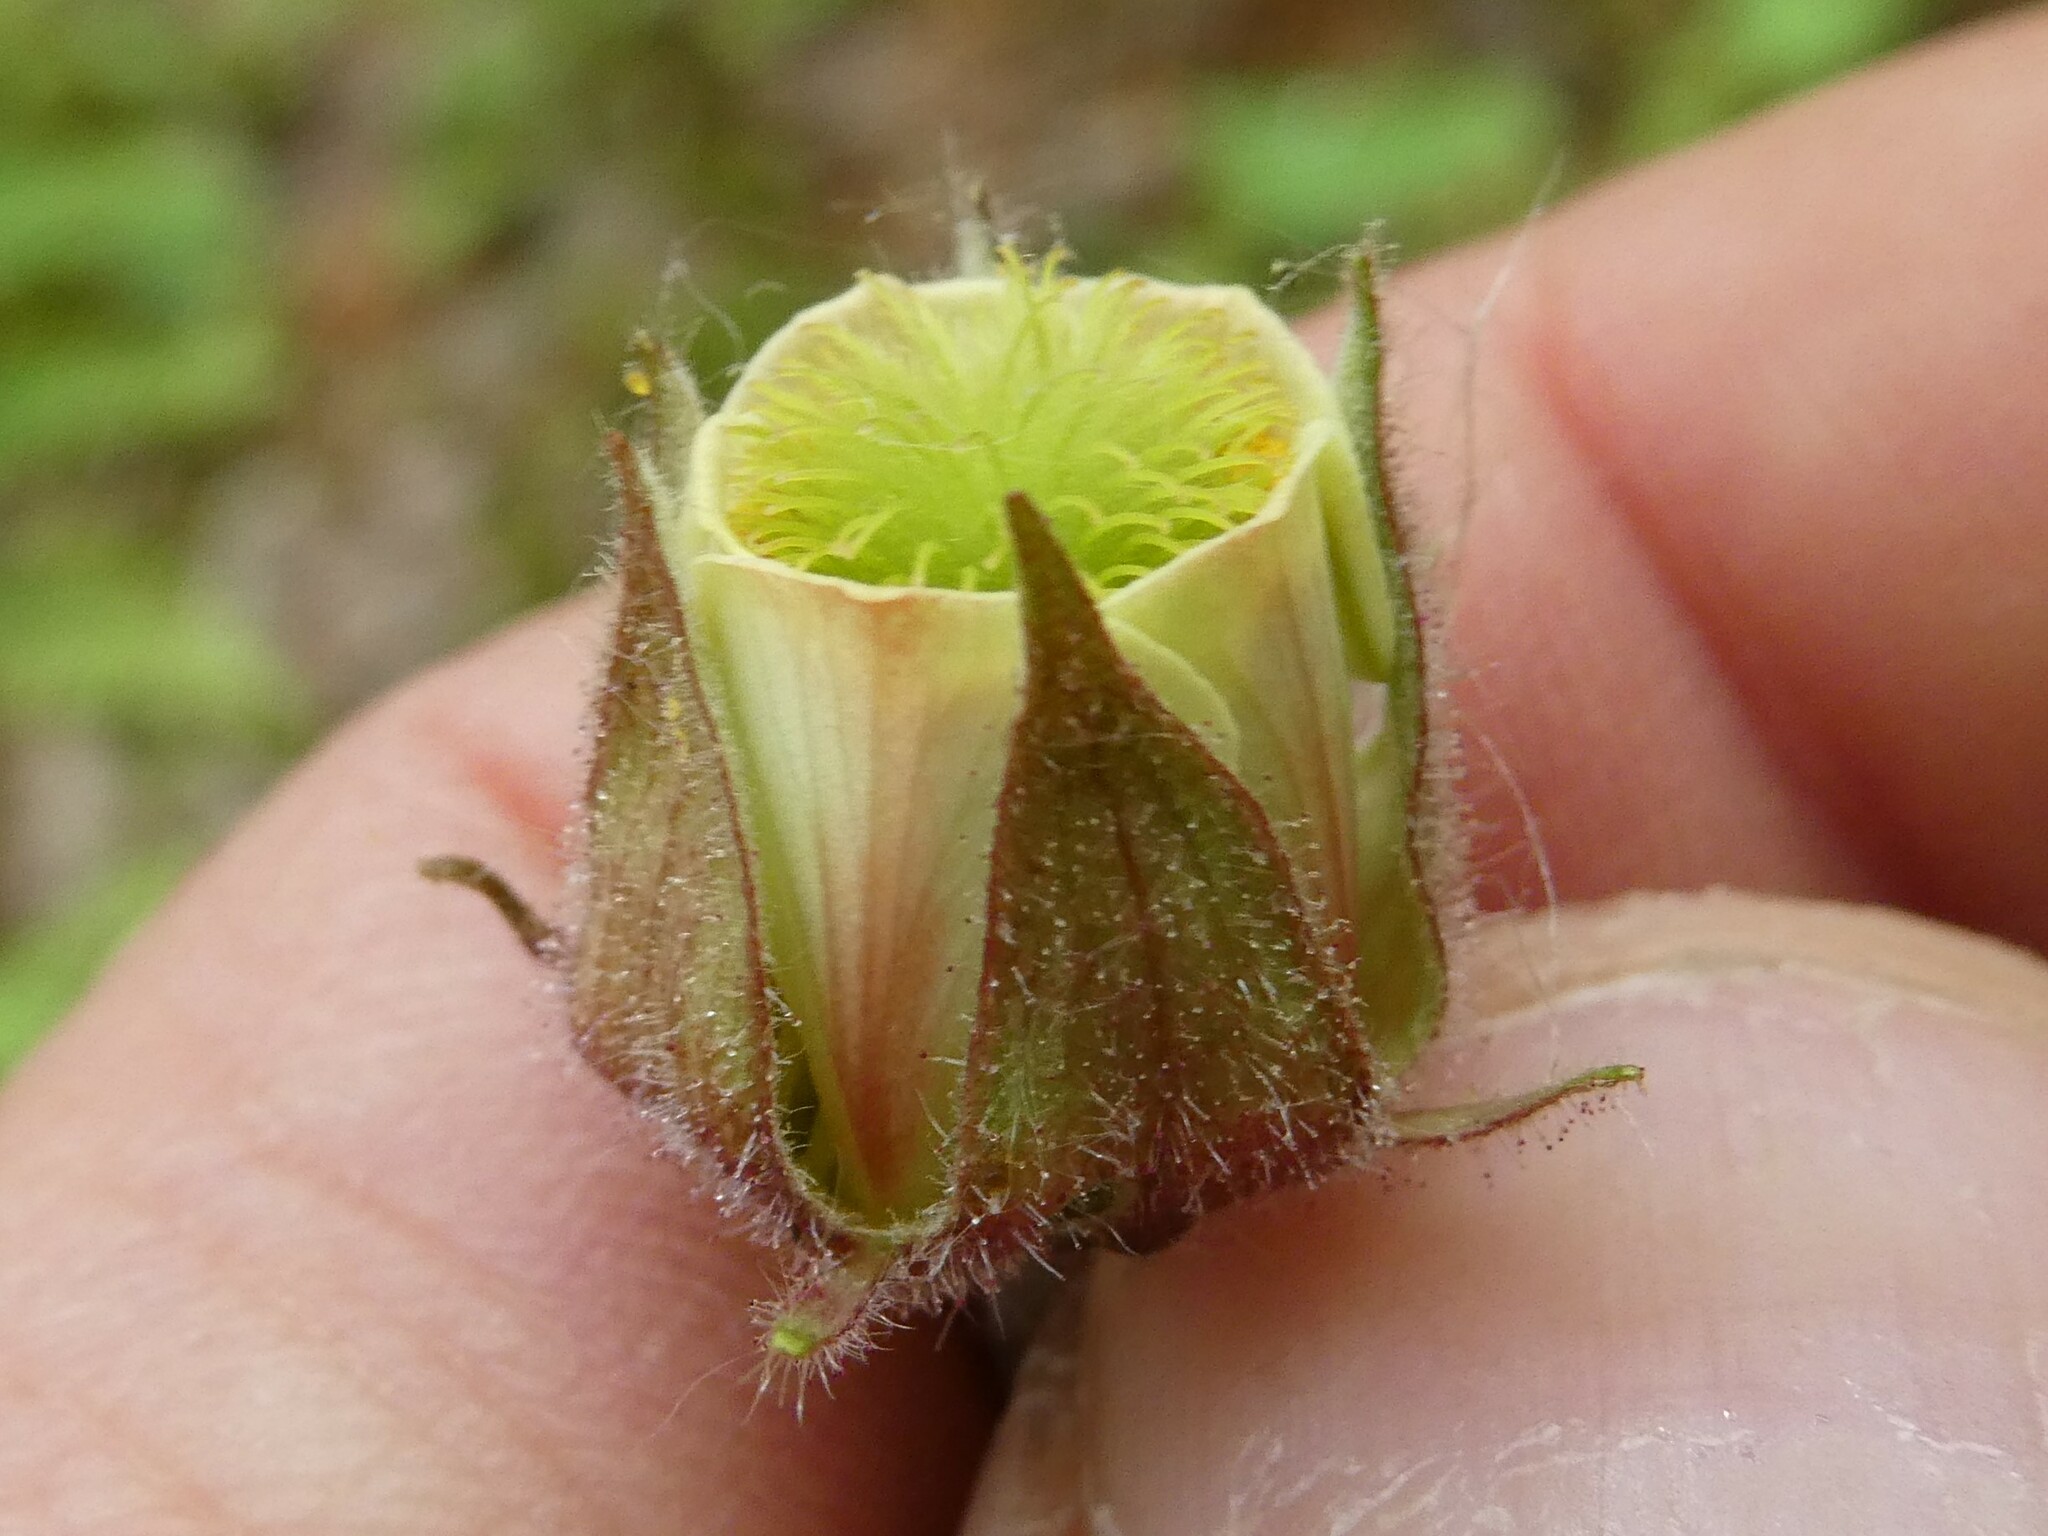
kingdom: Plantae
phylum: Tracheophyta
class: Magnoliopsida
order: Rosales
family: Rosaceae
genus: Geum
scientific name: Geum rivale
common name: Water avens
